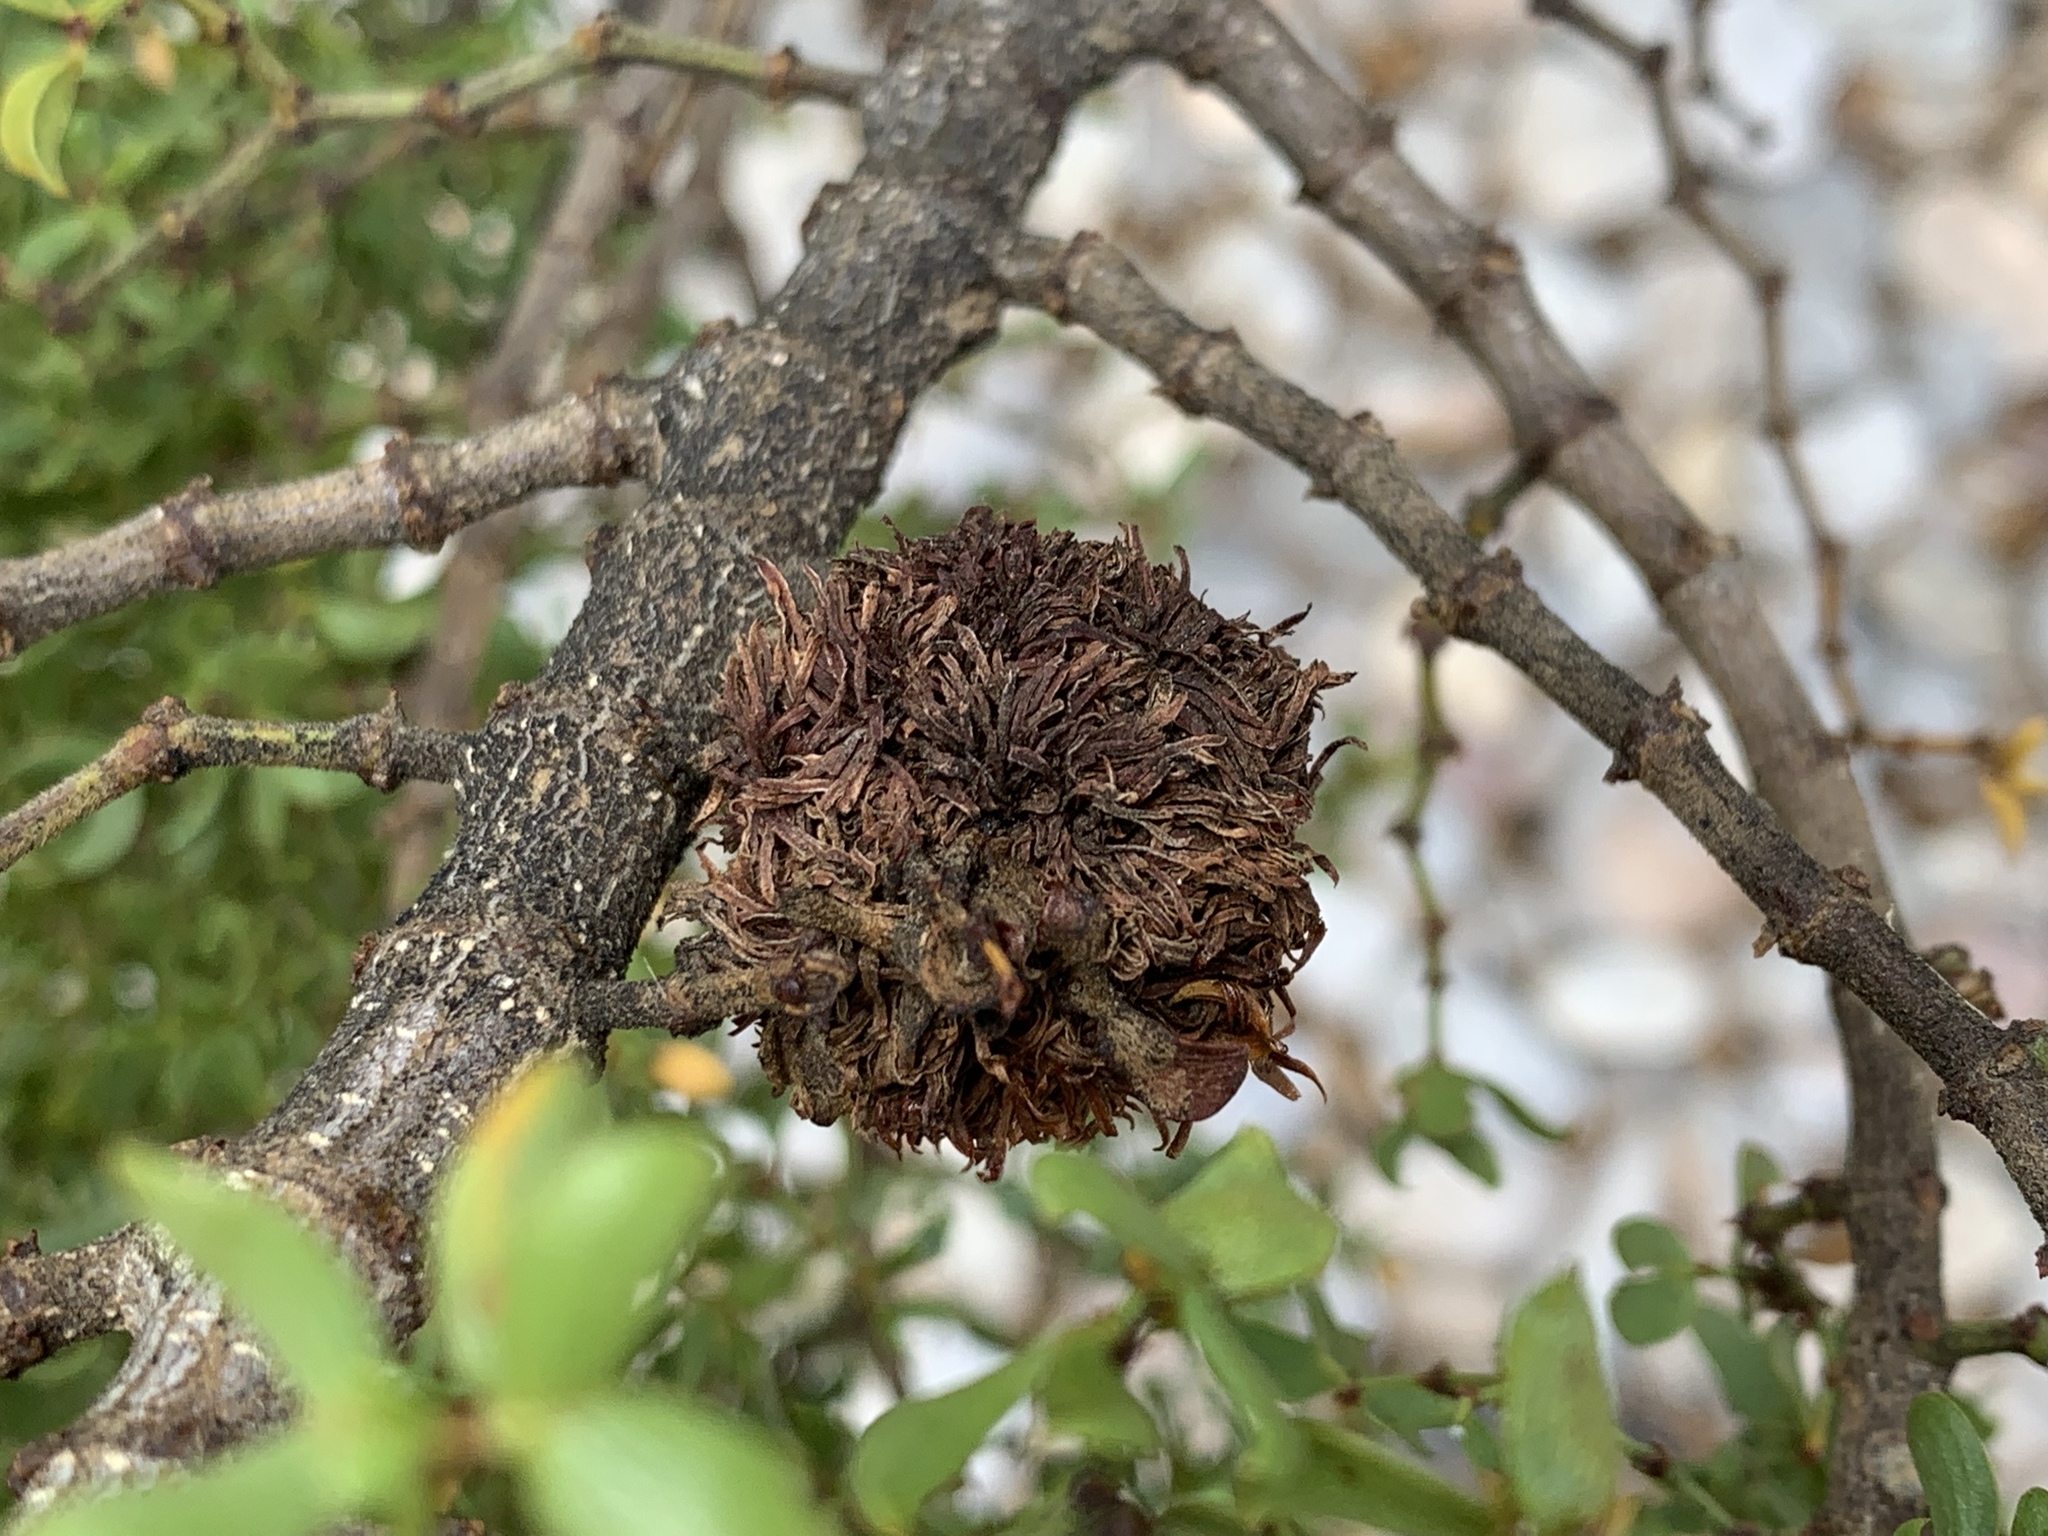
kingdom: Animalia
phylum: Arthropoda
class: Insecta
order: Diptera
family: Cecidomyiidae
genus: Asphondylia
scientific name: Asphondylia auripila
